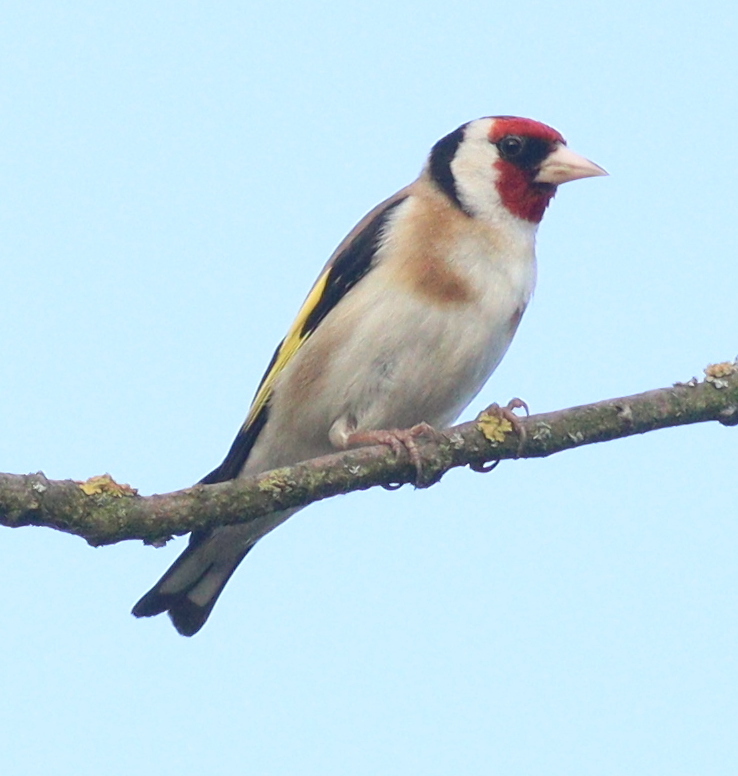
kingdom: Animalia
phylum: Chordata
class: Aves
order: Passeriformes
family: Fringillidae
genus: Carduelis
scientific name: Carduelis carduelis
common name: European goldfinch
